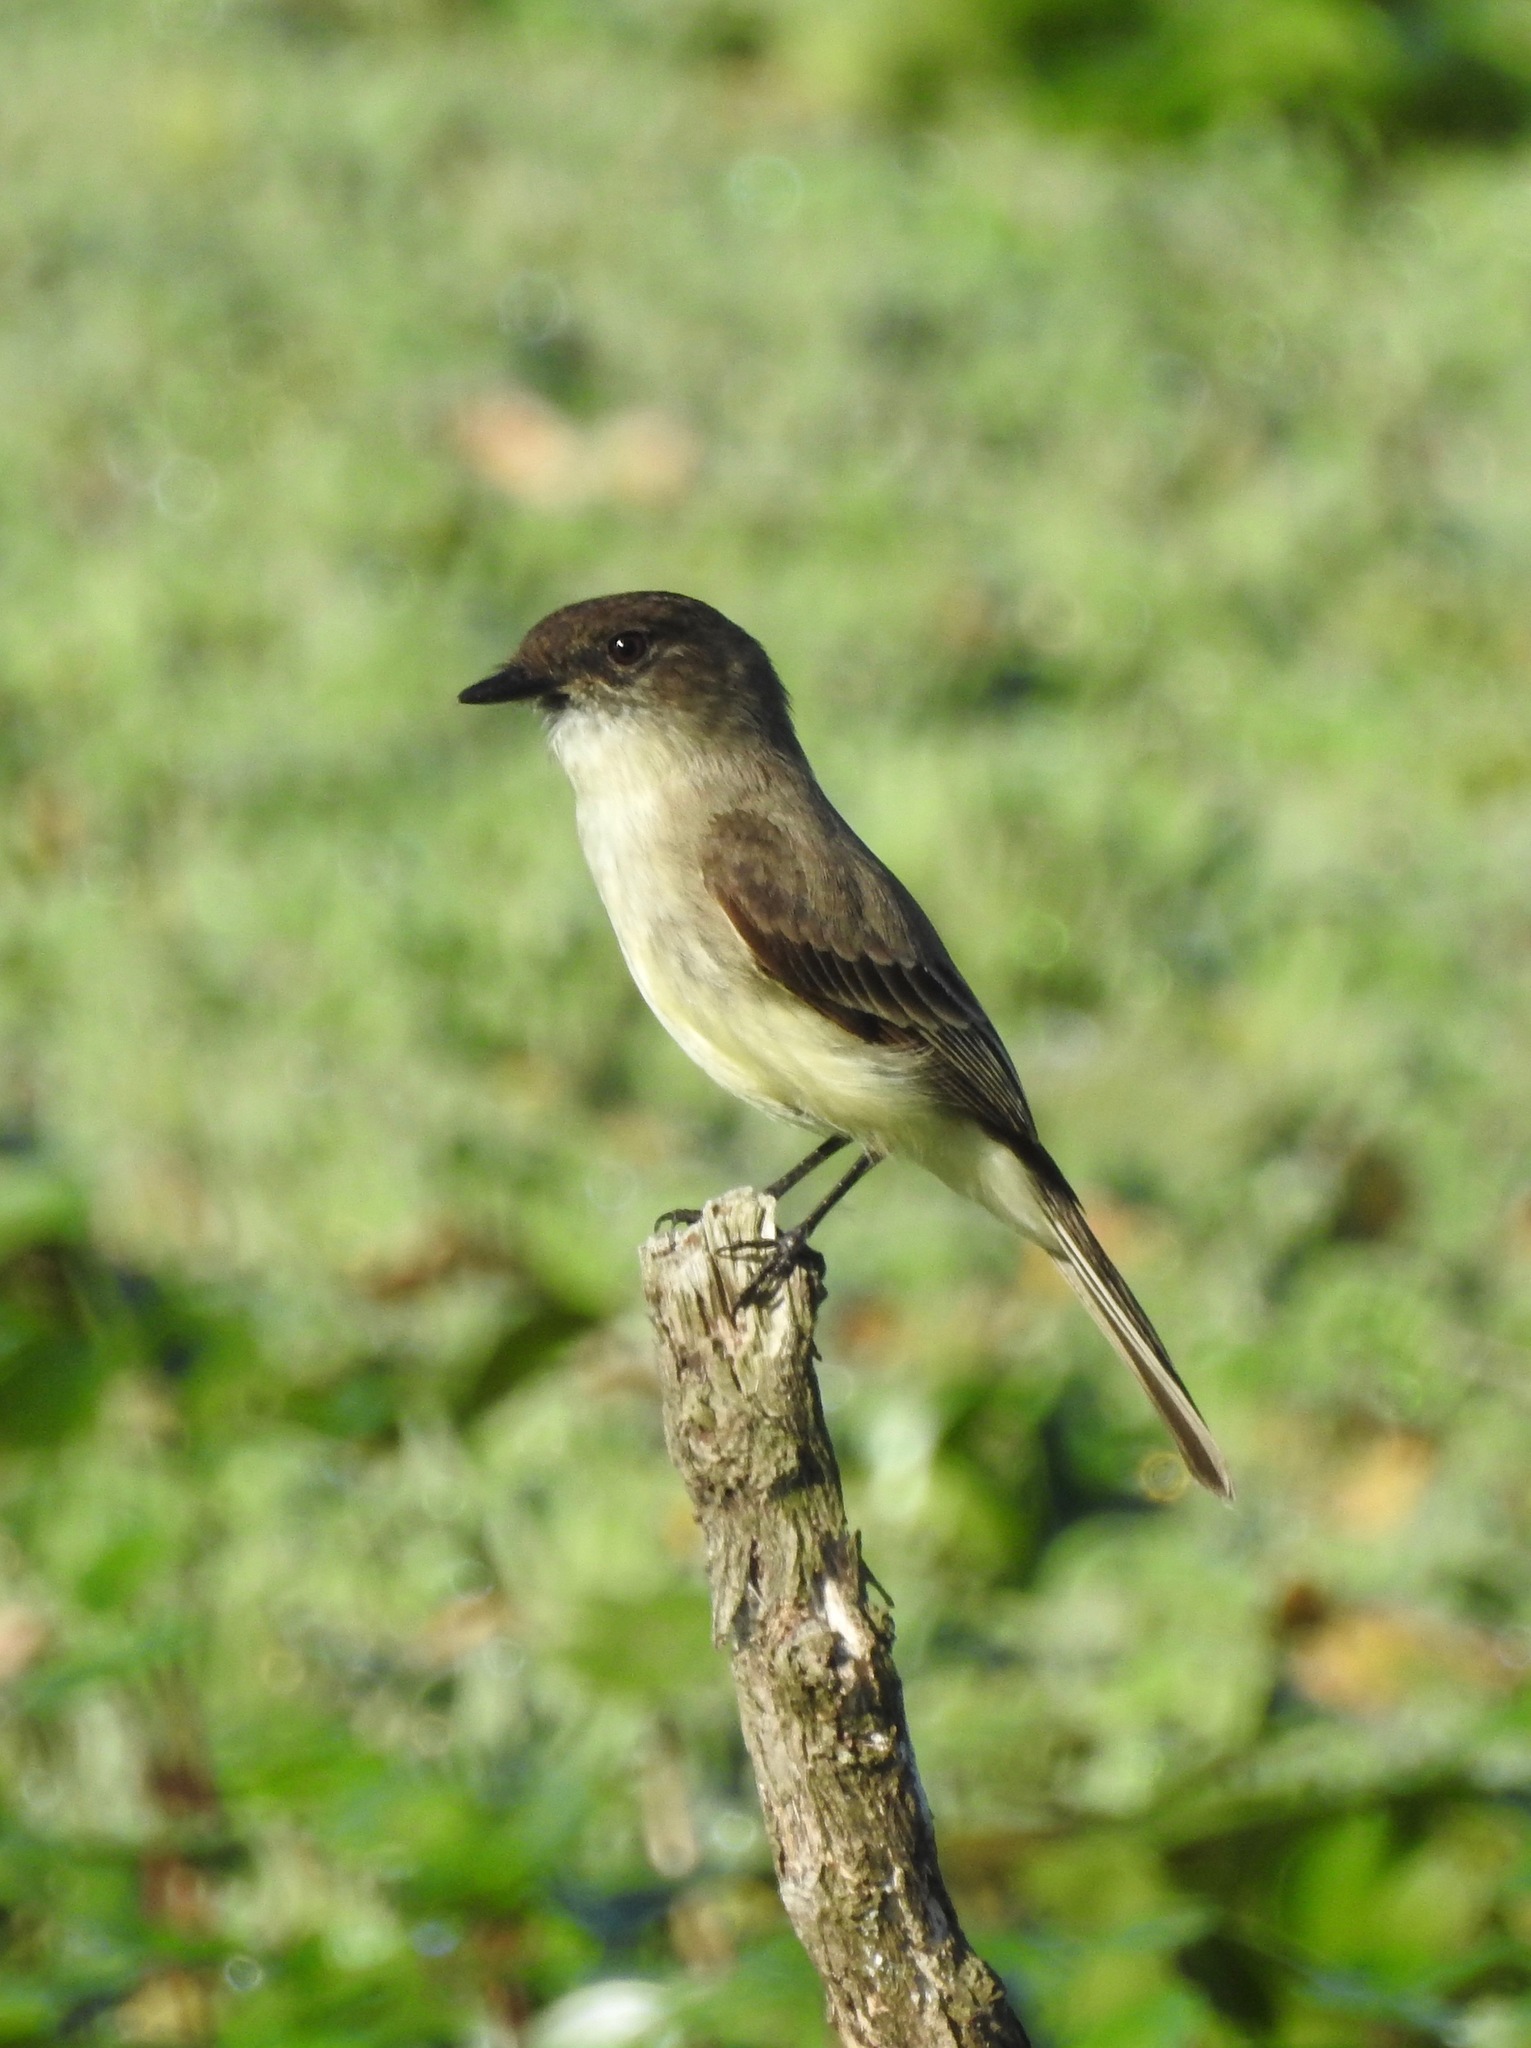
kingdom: Animalia
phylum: Chordata
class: Aves
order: Passeriformes
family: Tyrannidae
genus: Sayornis
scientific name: Sayornis phoebe
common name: Eastern phoebe
